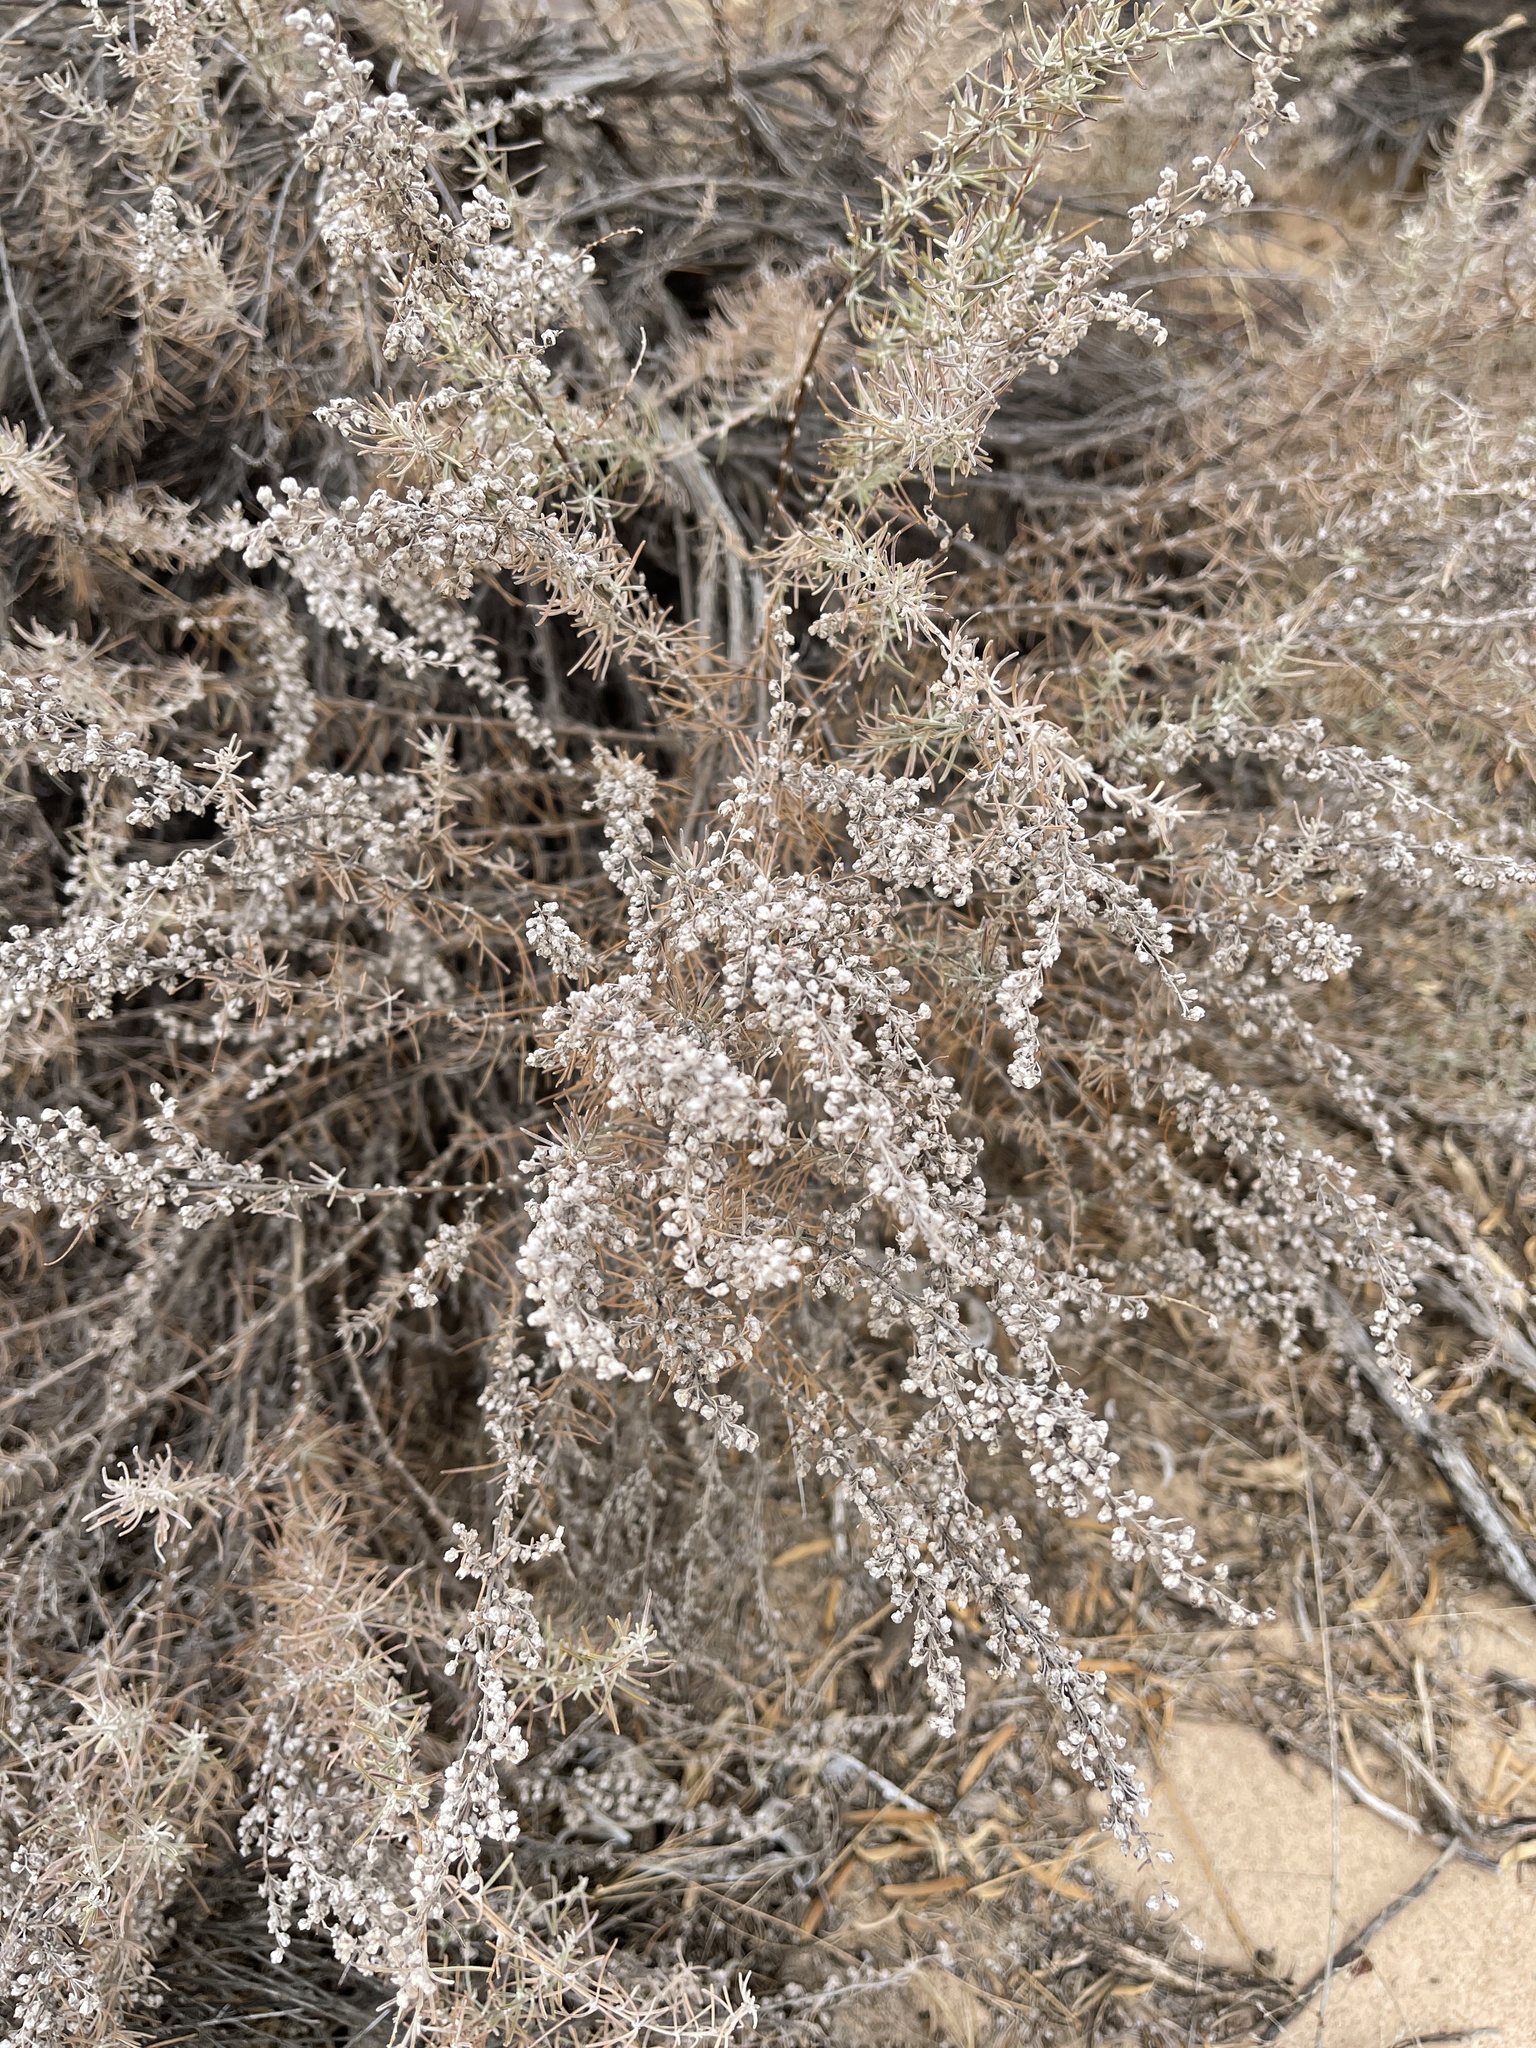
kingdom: Plantae
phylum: Tracheophyta
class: Magnoliopsida
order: Asterales
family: Asteraceae
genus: Artemisia
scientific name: Artemisia filifolia
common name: Sand-sage
